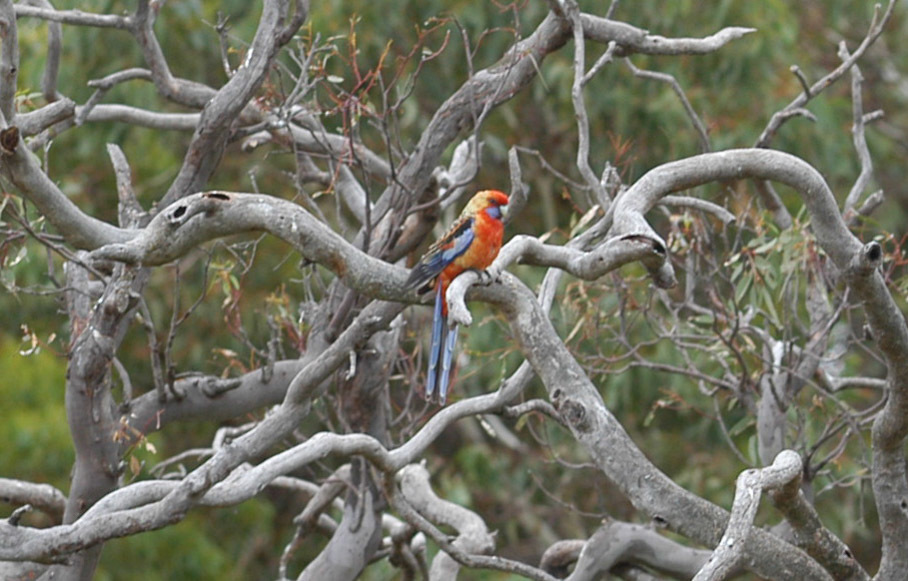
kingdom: Animalia
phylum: Chordata
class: Aves
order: Psittaciformes
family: Psittacidae
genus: Platycercus
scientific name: Platycercus elegans
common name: Crimson rosella
